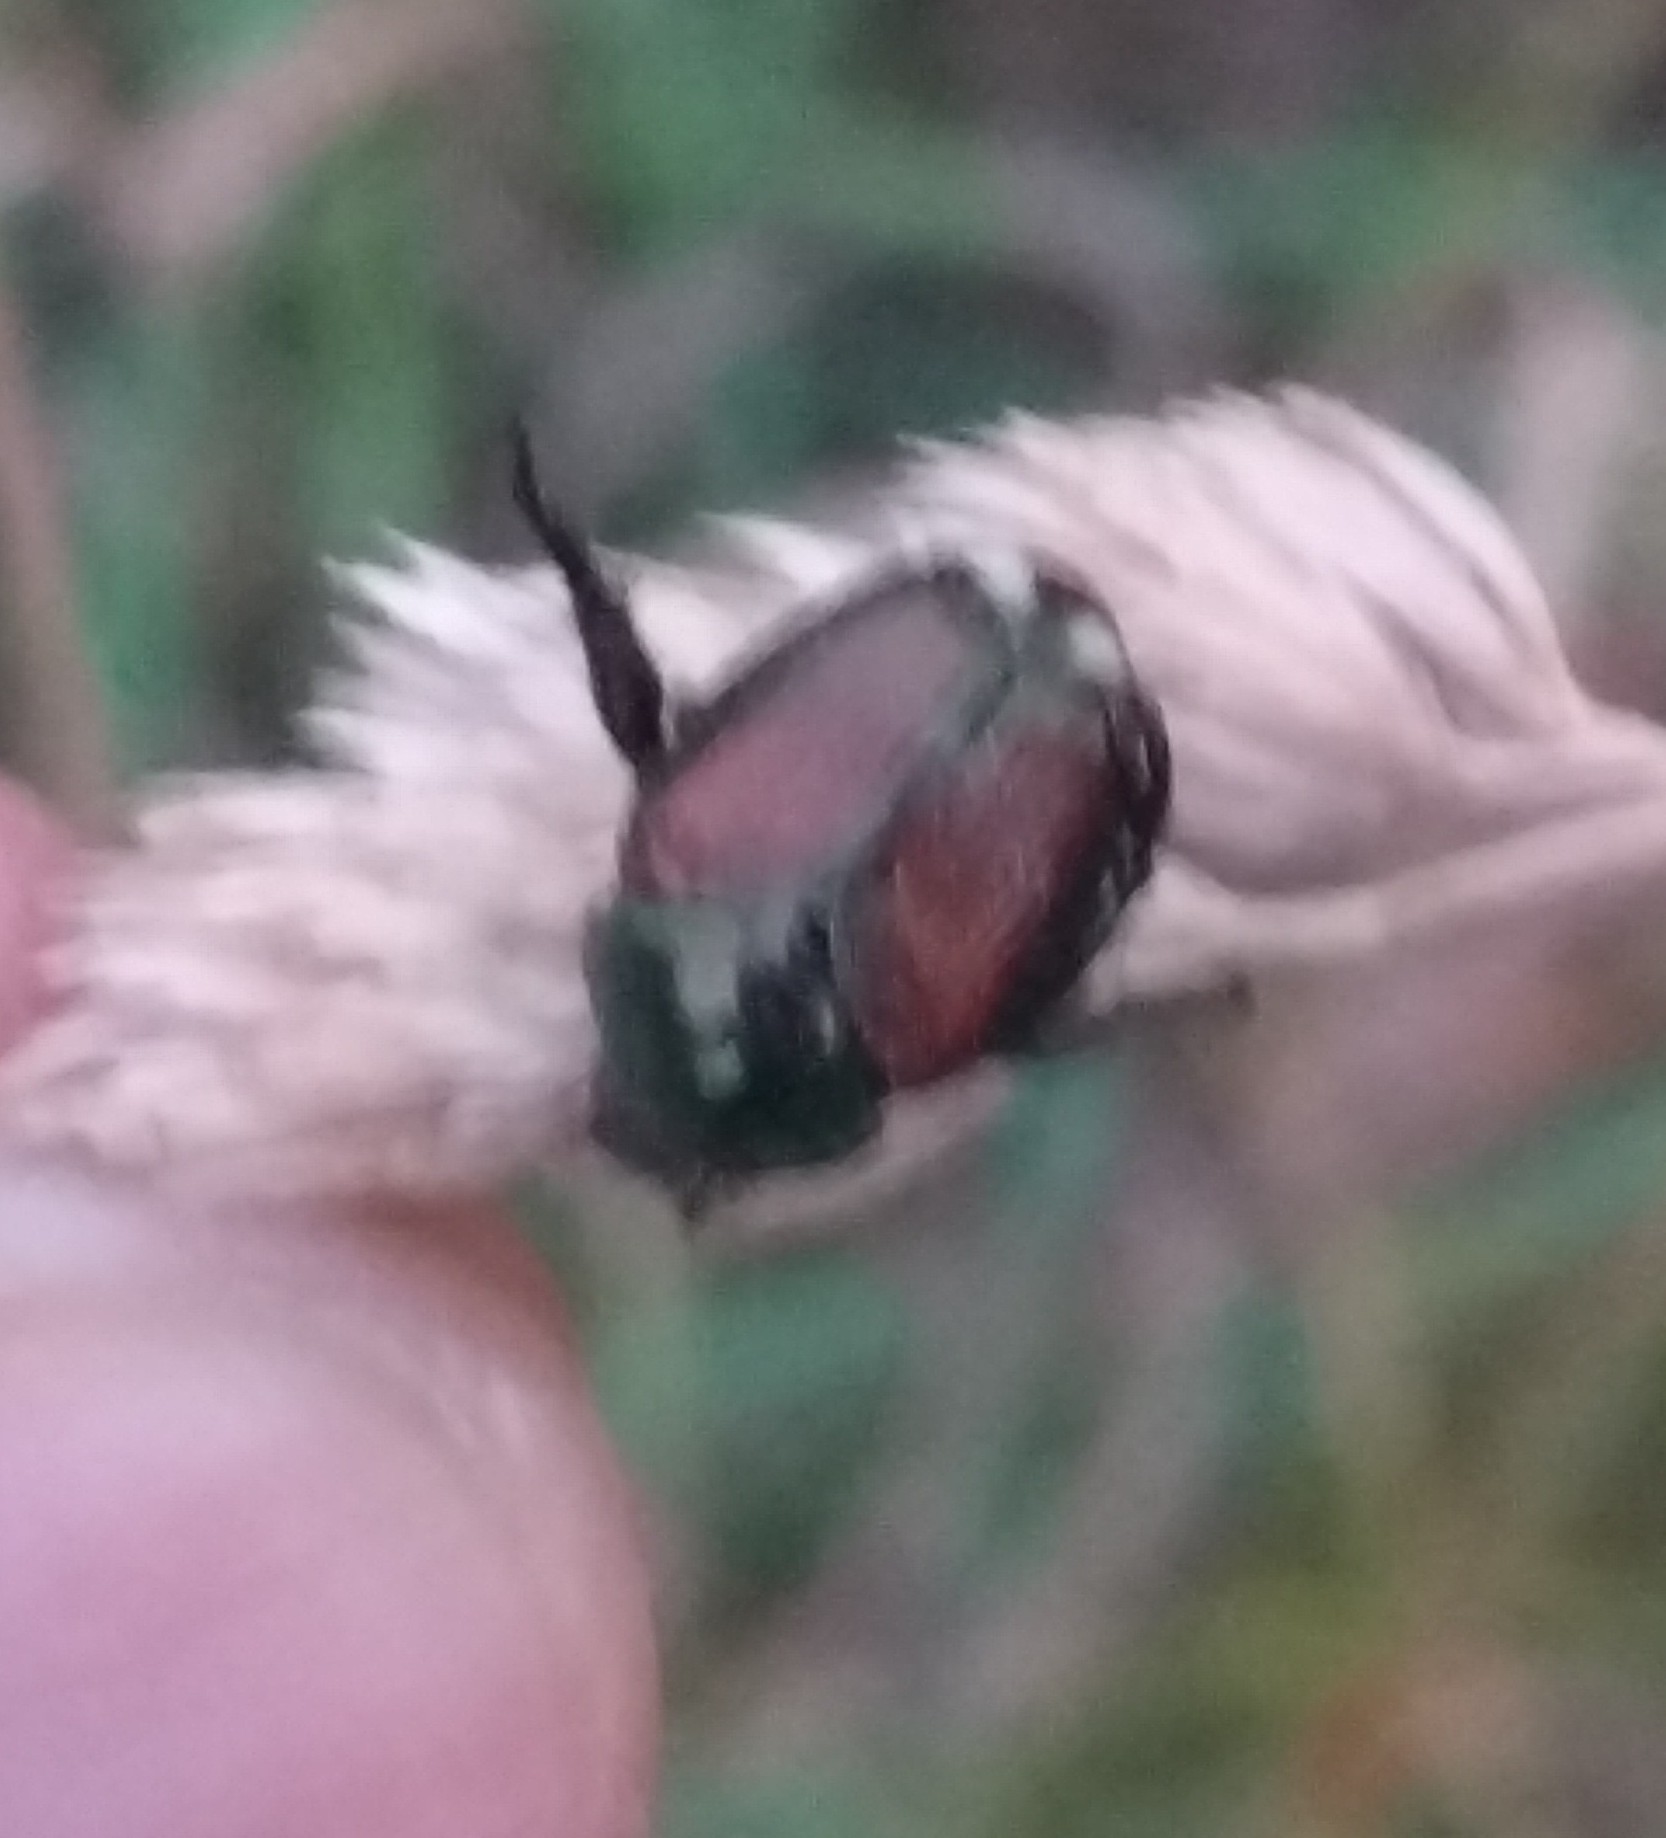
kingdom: Animalia
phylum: Arthropoda
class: Insecta
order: Coleoptera
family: Scarabaeidae
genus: Popillia
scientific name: Popillia japonica
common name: Japanese beetle
